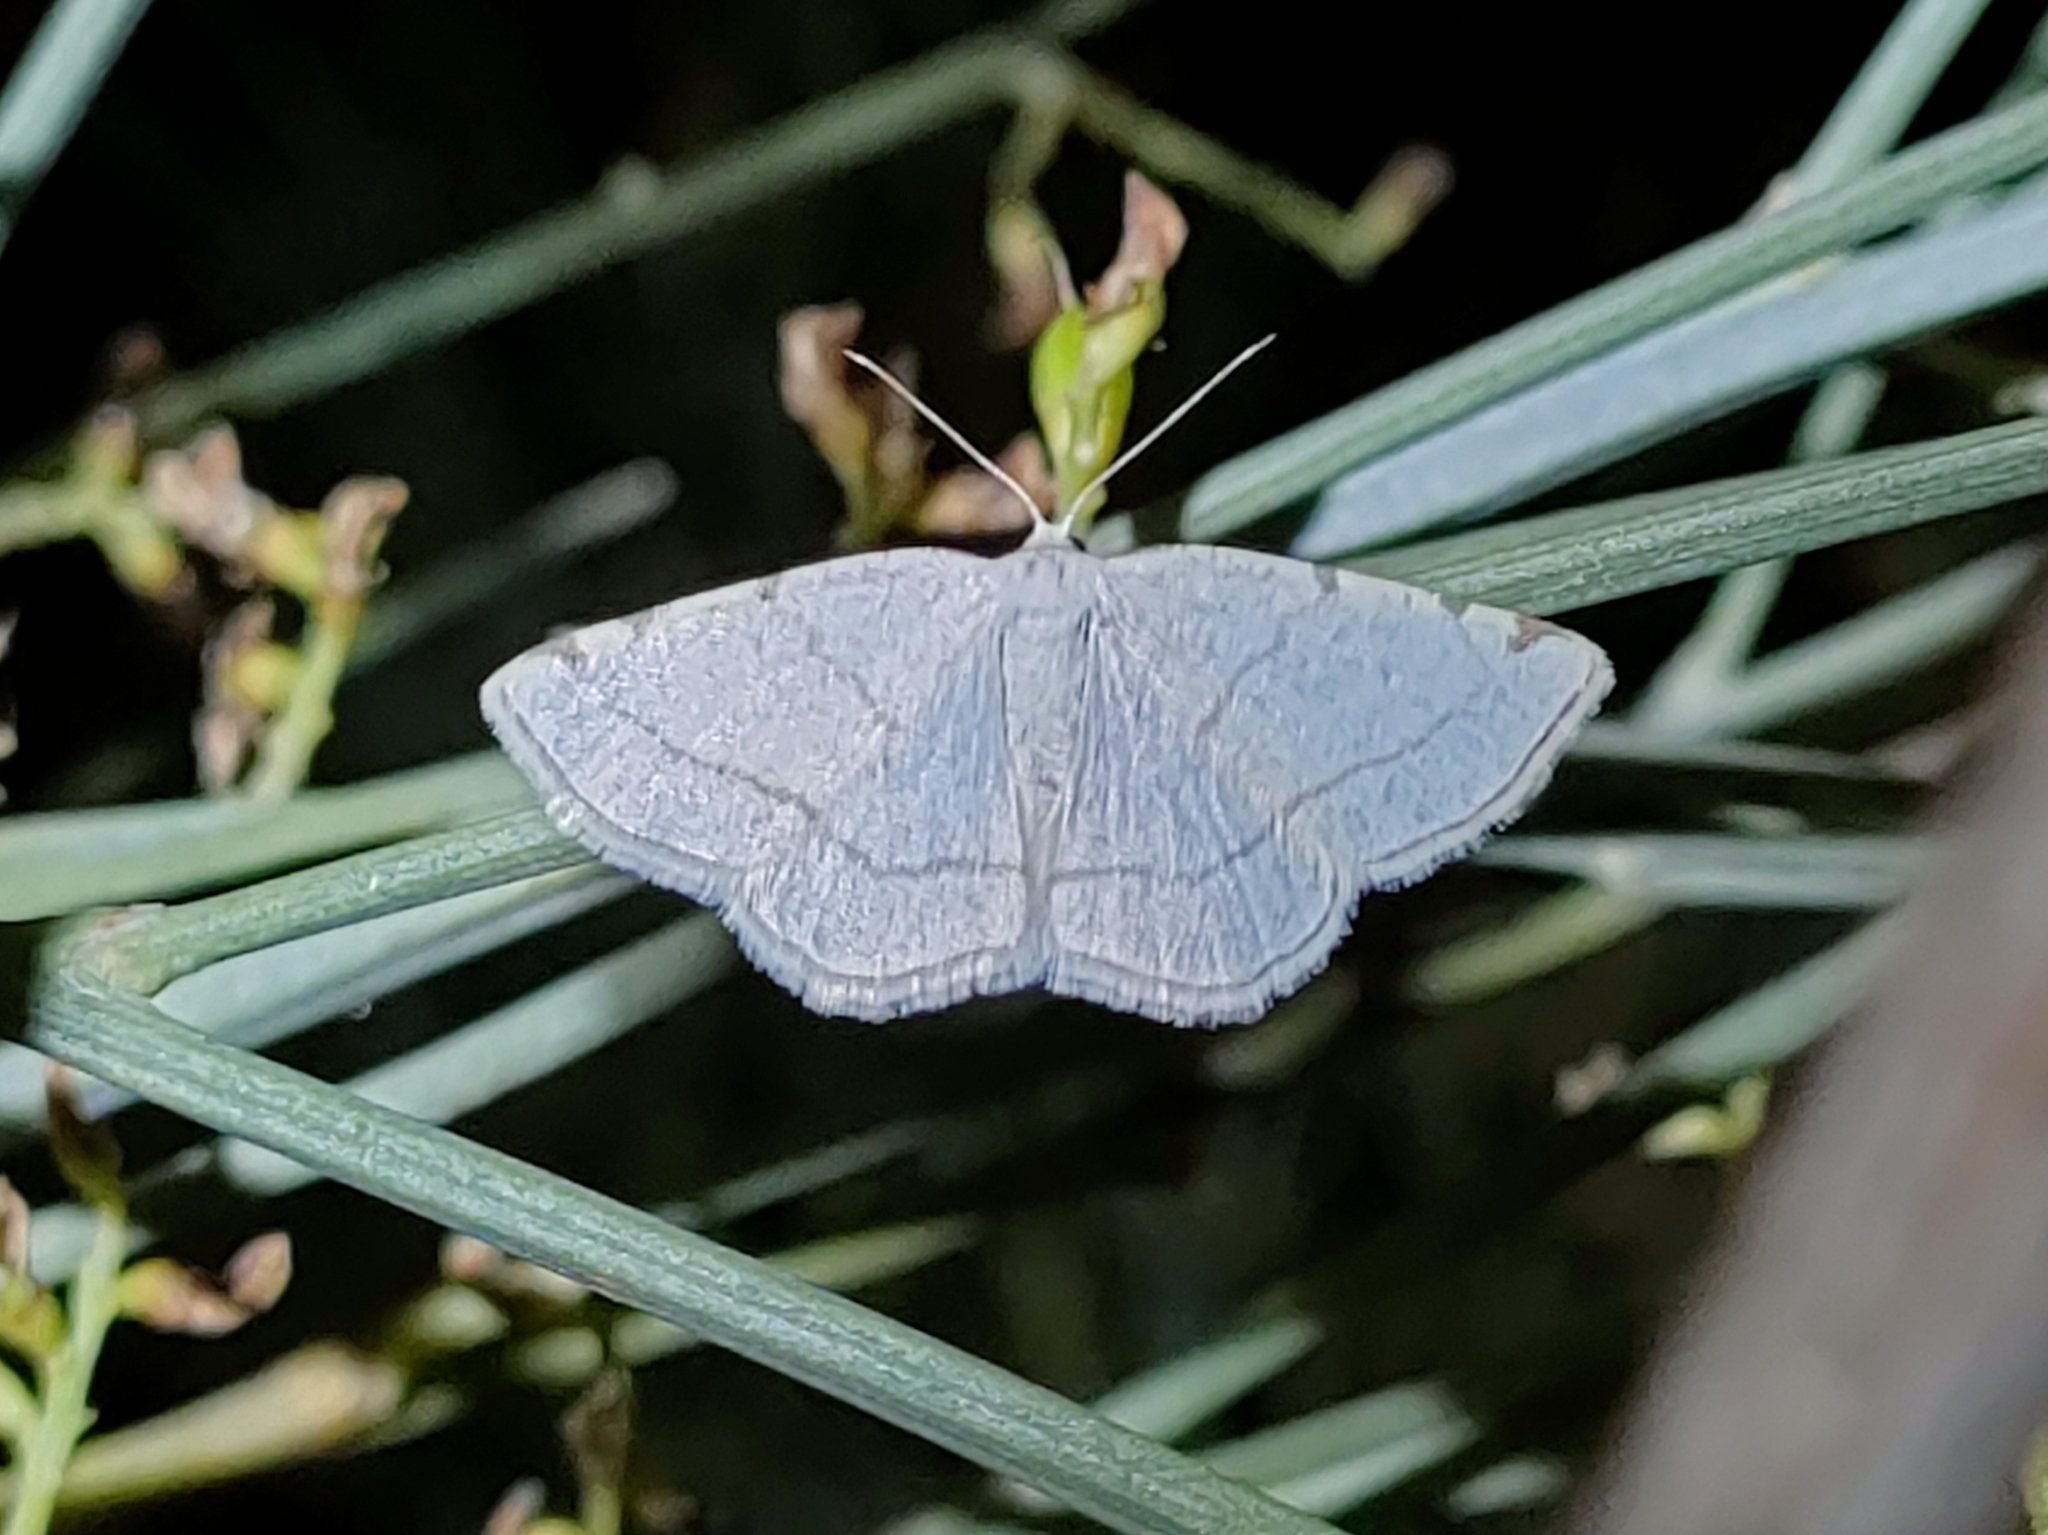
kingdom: Animalia
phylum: Arthropoda
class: Insecta
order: Lepidoptera
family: Geometridae
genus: Stegania
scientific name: Stegania trimaculata
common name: Dorset cream wave
